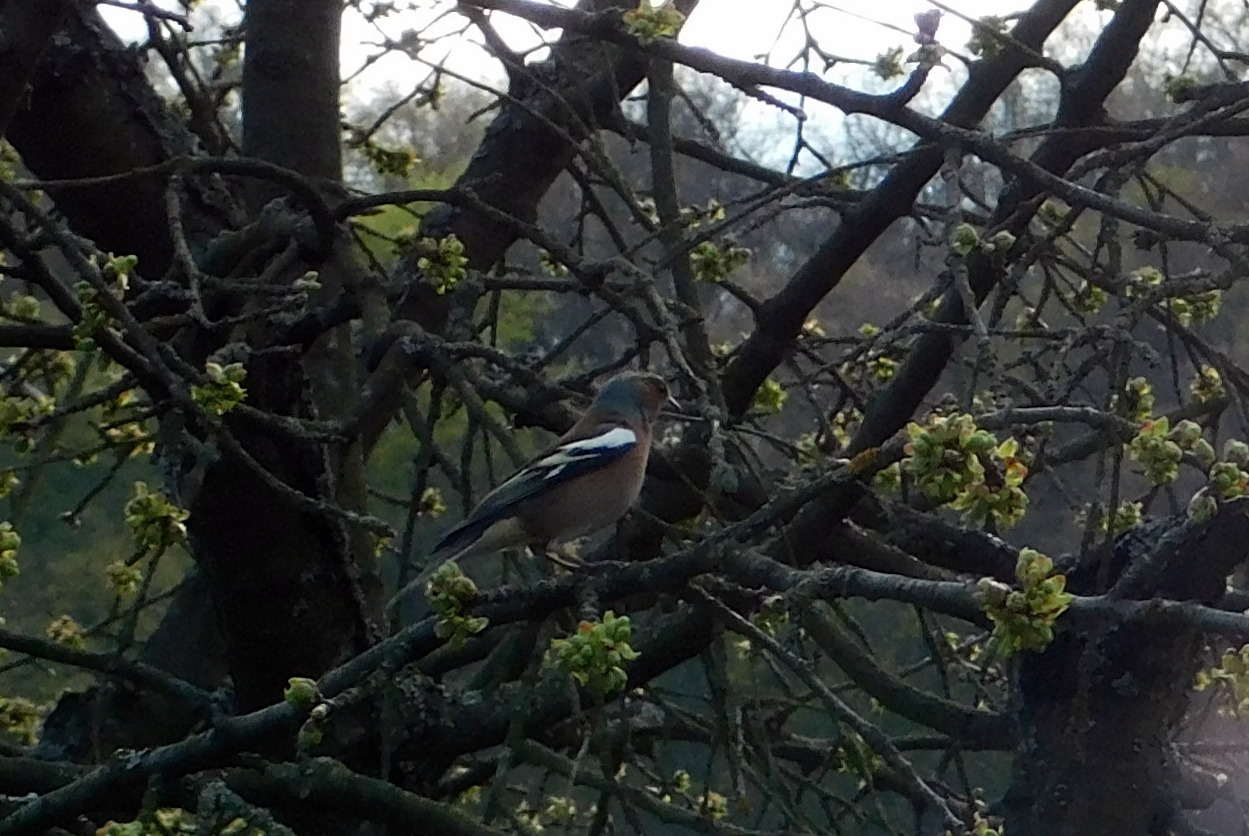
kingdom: Animalia
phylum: Chordata
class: Aves
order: Passeriformes
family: Fringillidae
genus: Fringilla
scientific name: Fringilla coelebs
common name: Common chaffinch
